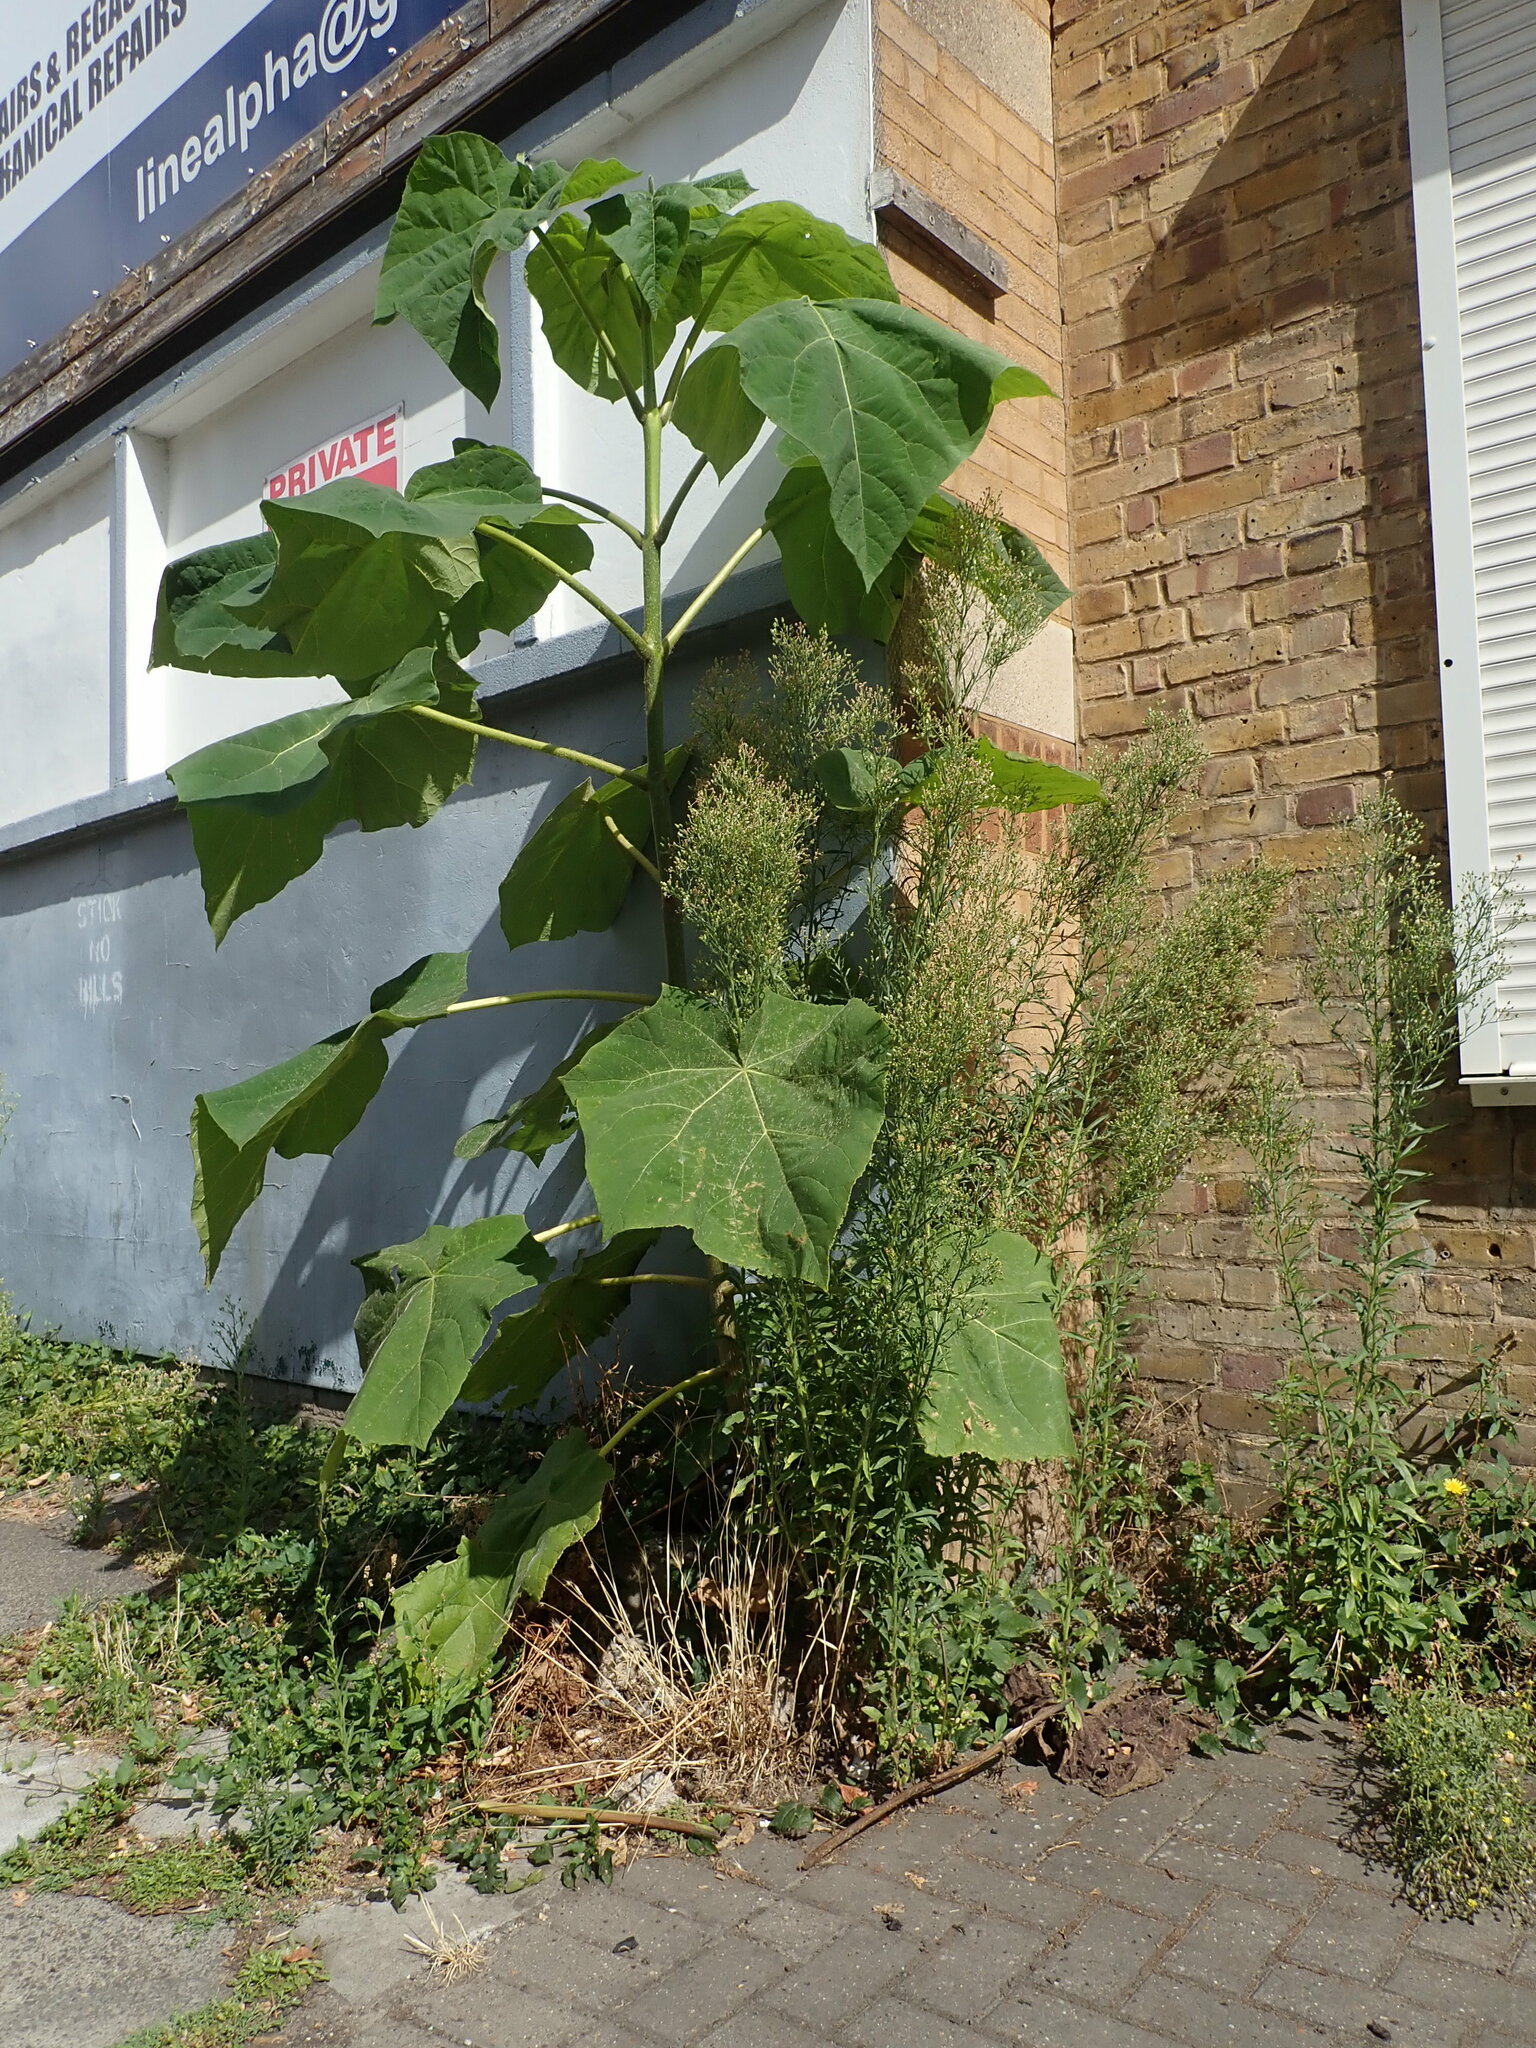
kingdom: Plantae
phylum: Tracheophyta
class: Magnoliopsida
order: Lamiales
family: Paulowniaceae
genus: Paulownia
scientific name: Paulownia tomentosa
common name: Foxglove-tree
